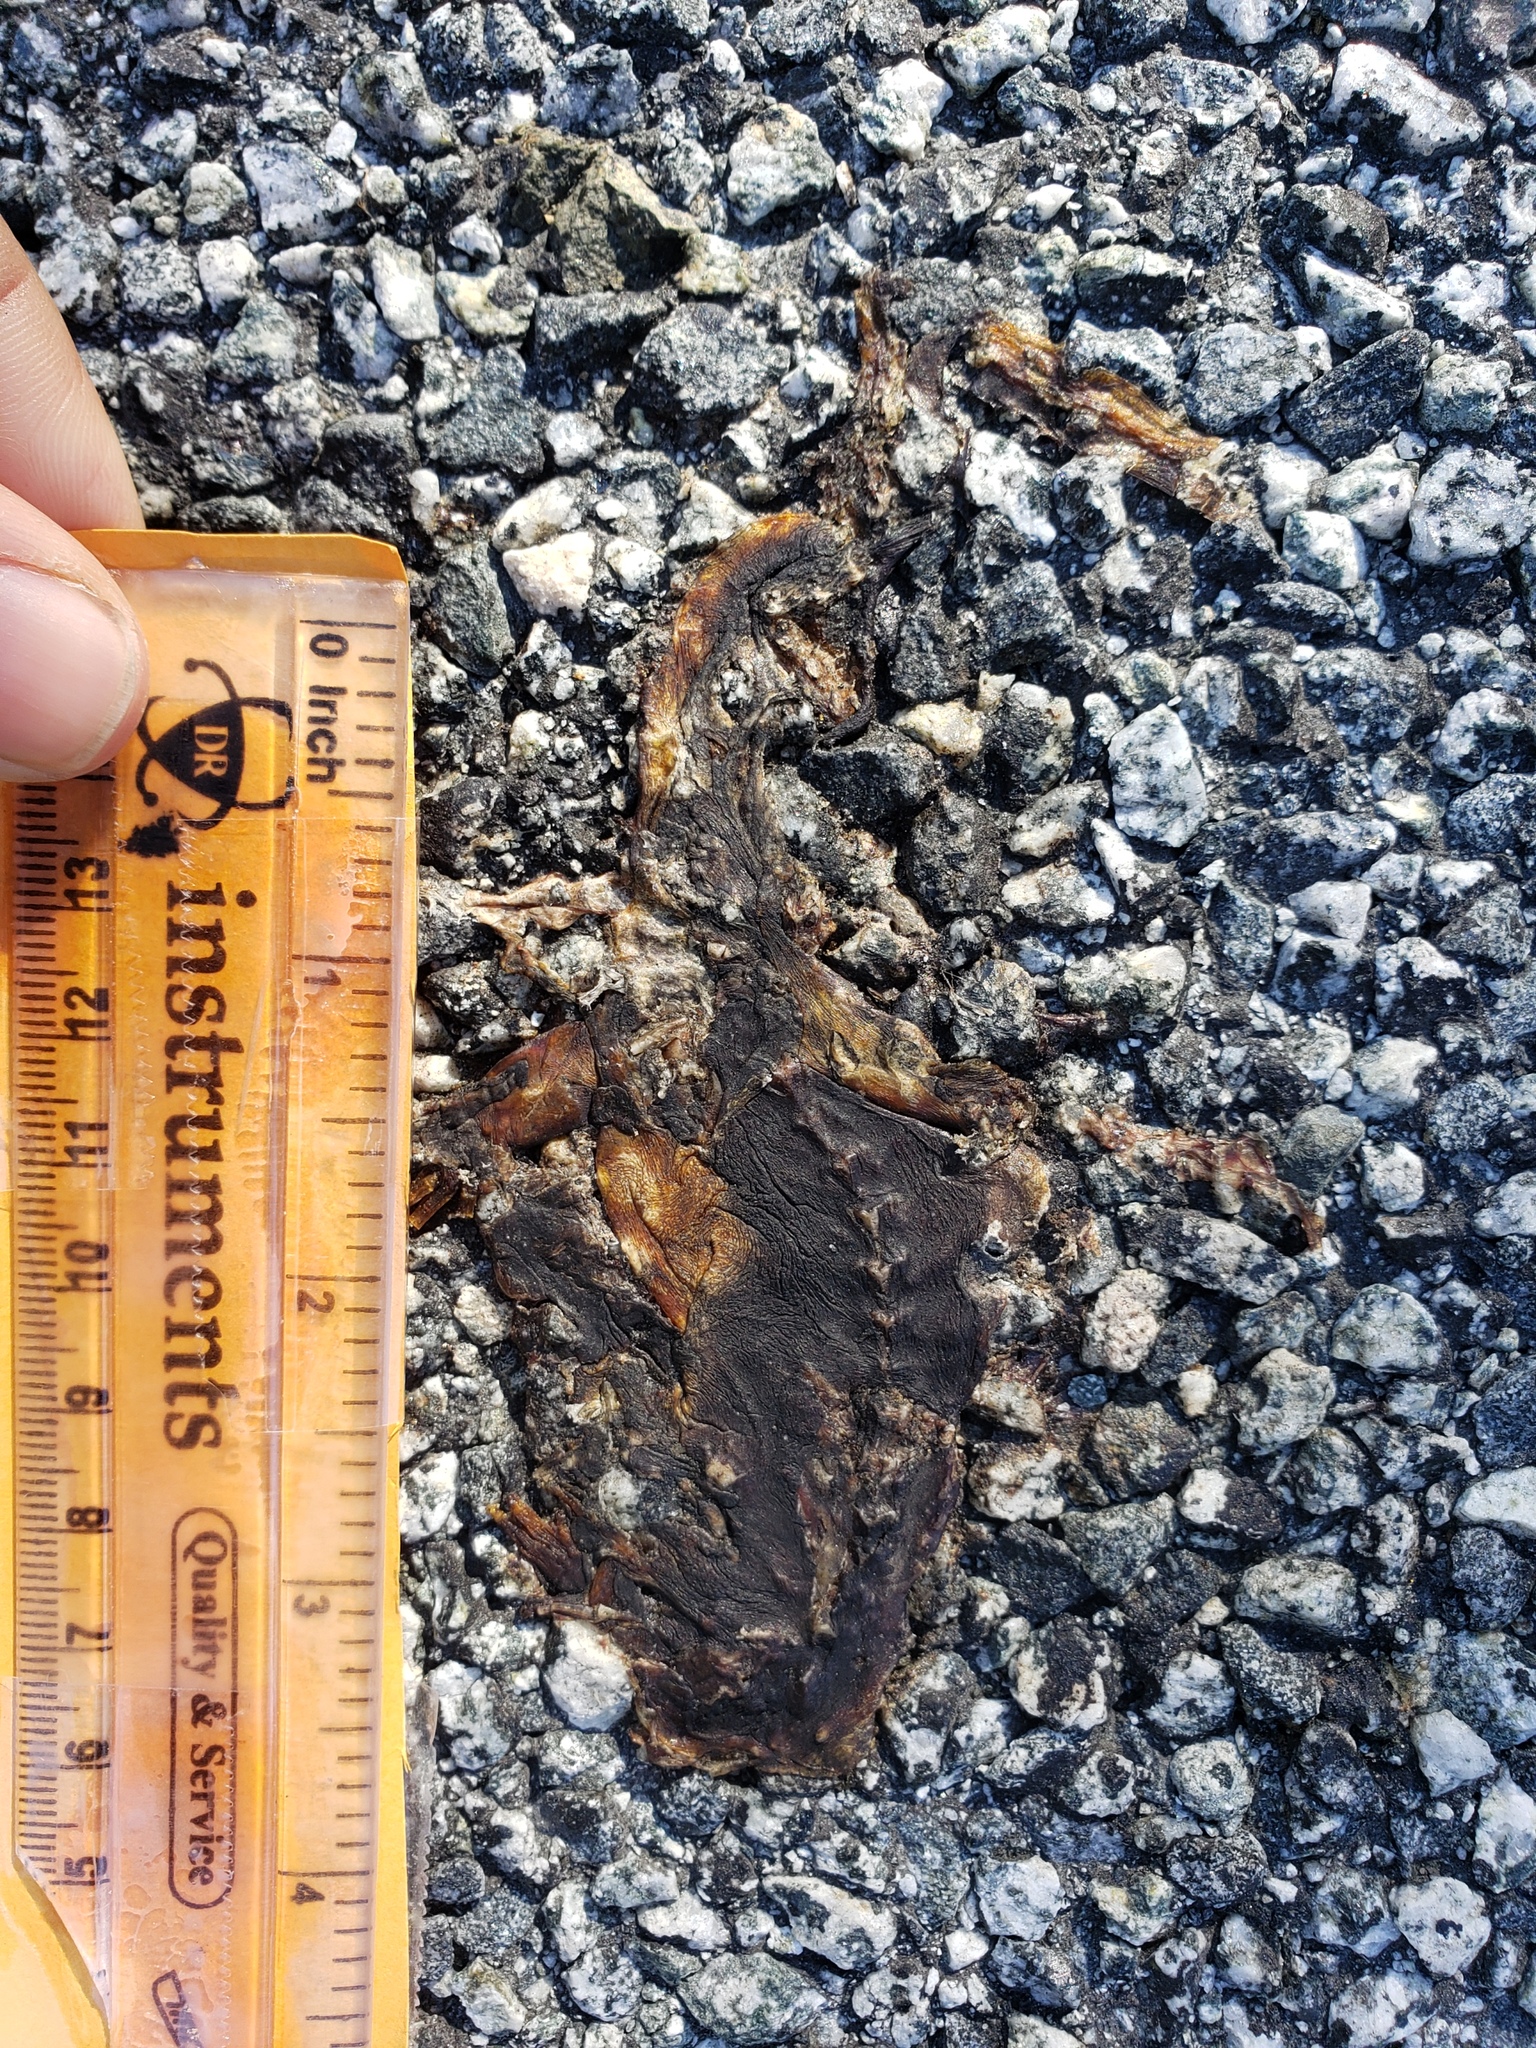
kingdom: Animalia
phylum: Chordata
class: Amphibia
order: Caudata
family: Salamandridae
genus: Taricha
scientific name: Taricha
